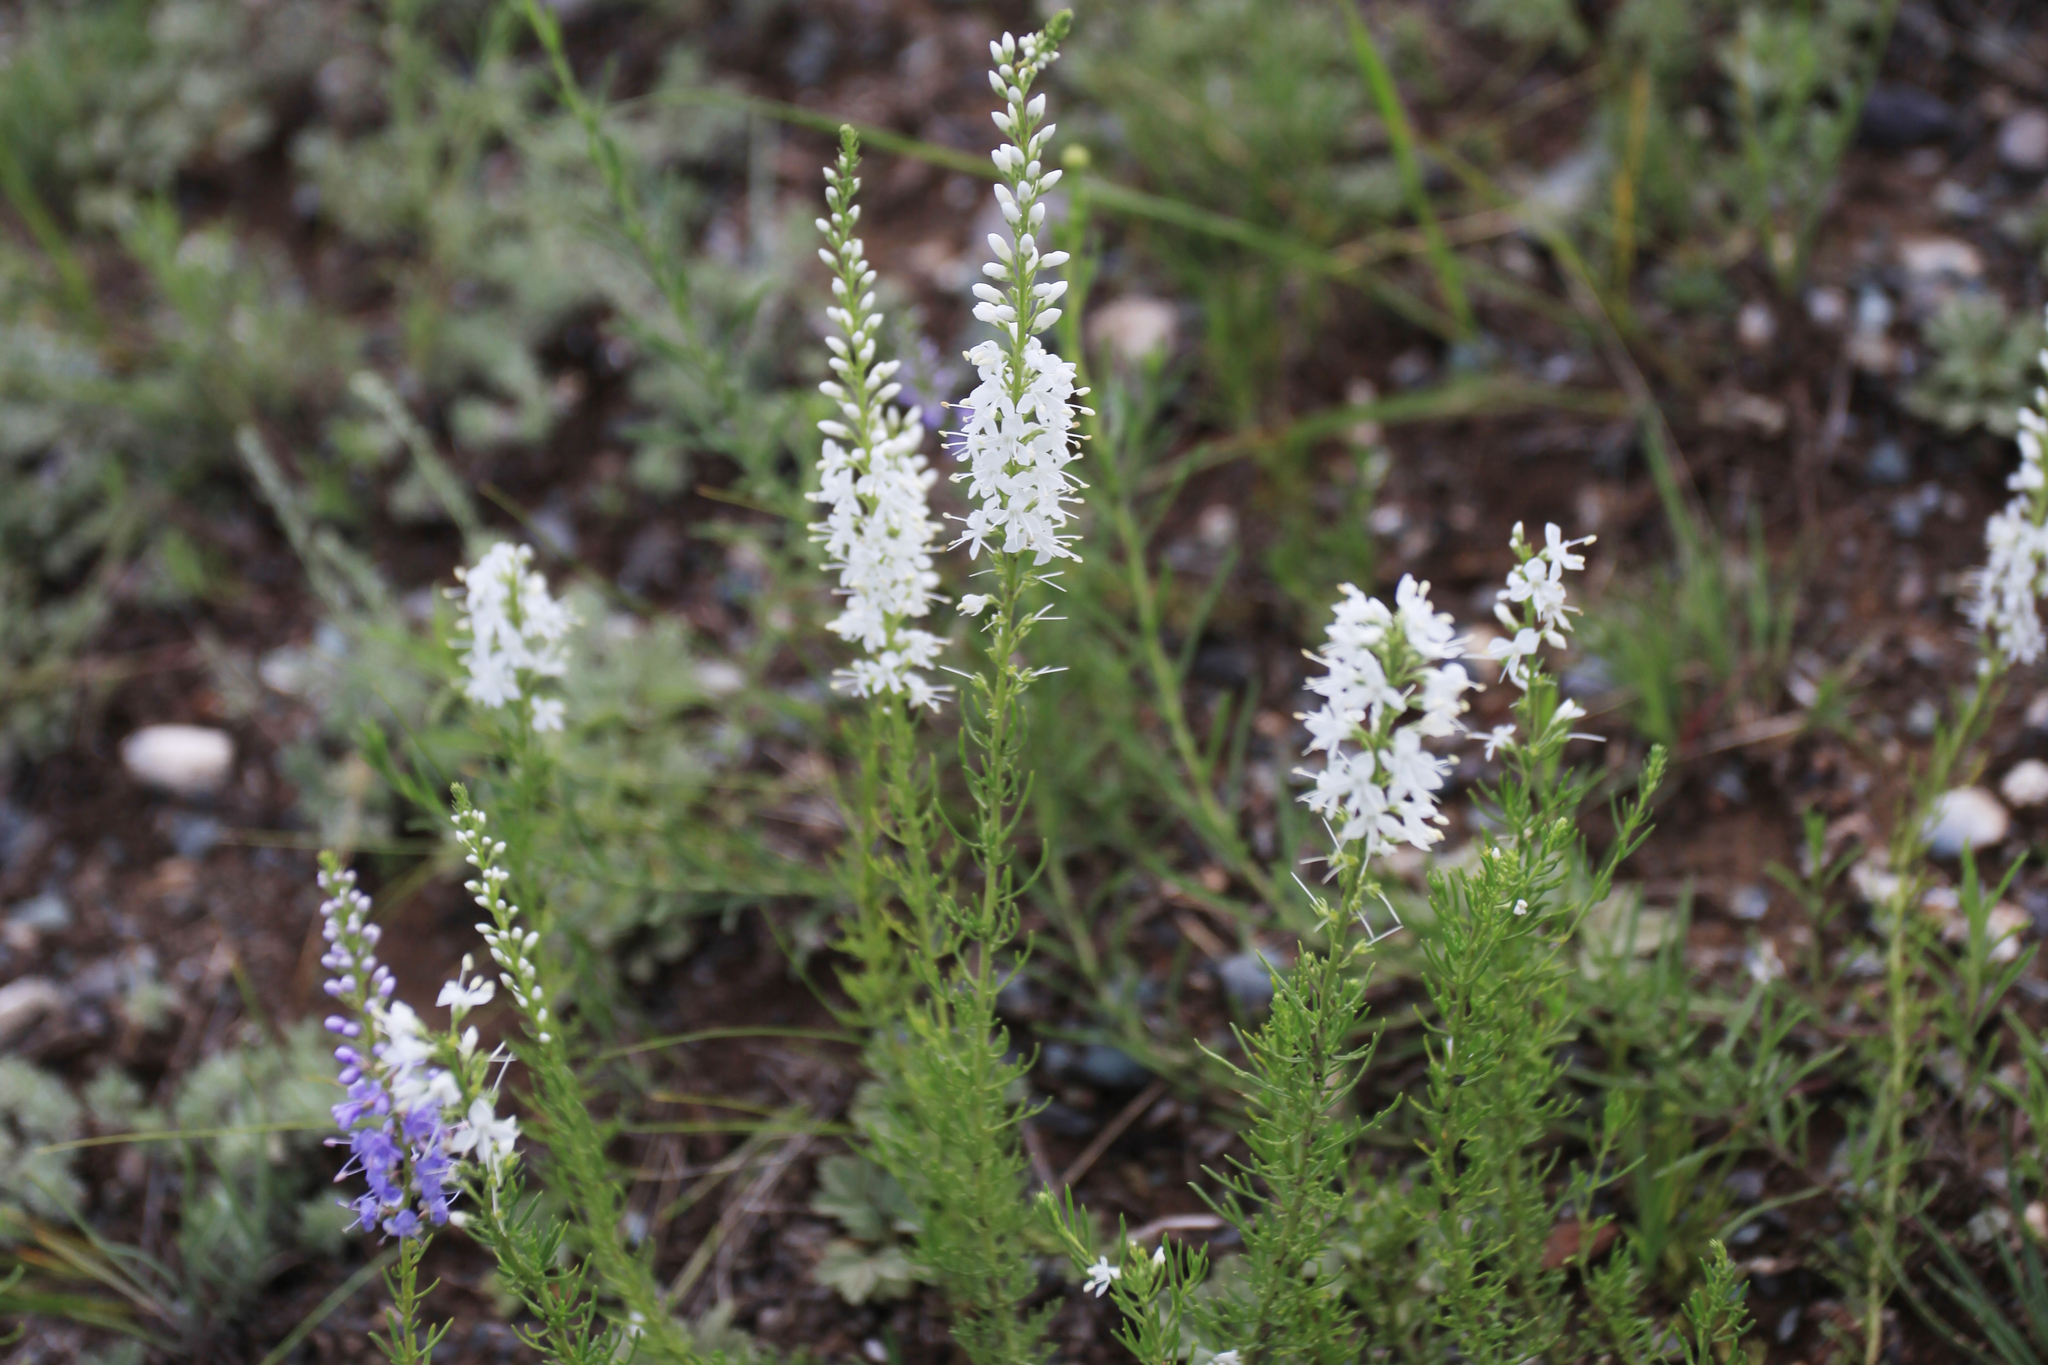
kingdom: Plantae
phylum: Tracheophyta
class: Magnoliopsida
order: Lamiales
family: Plantaginaceae
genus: Veronica
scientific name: Veronica pinnata
